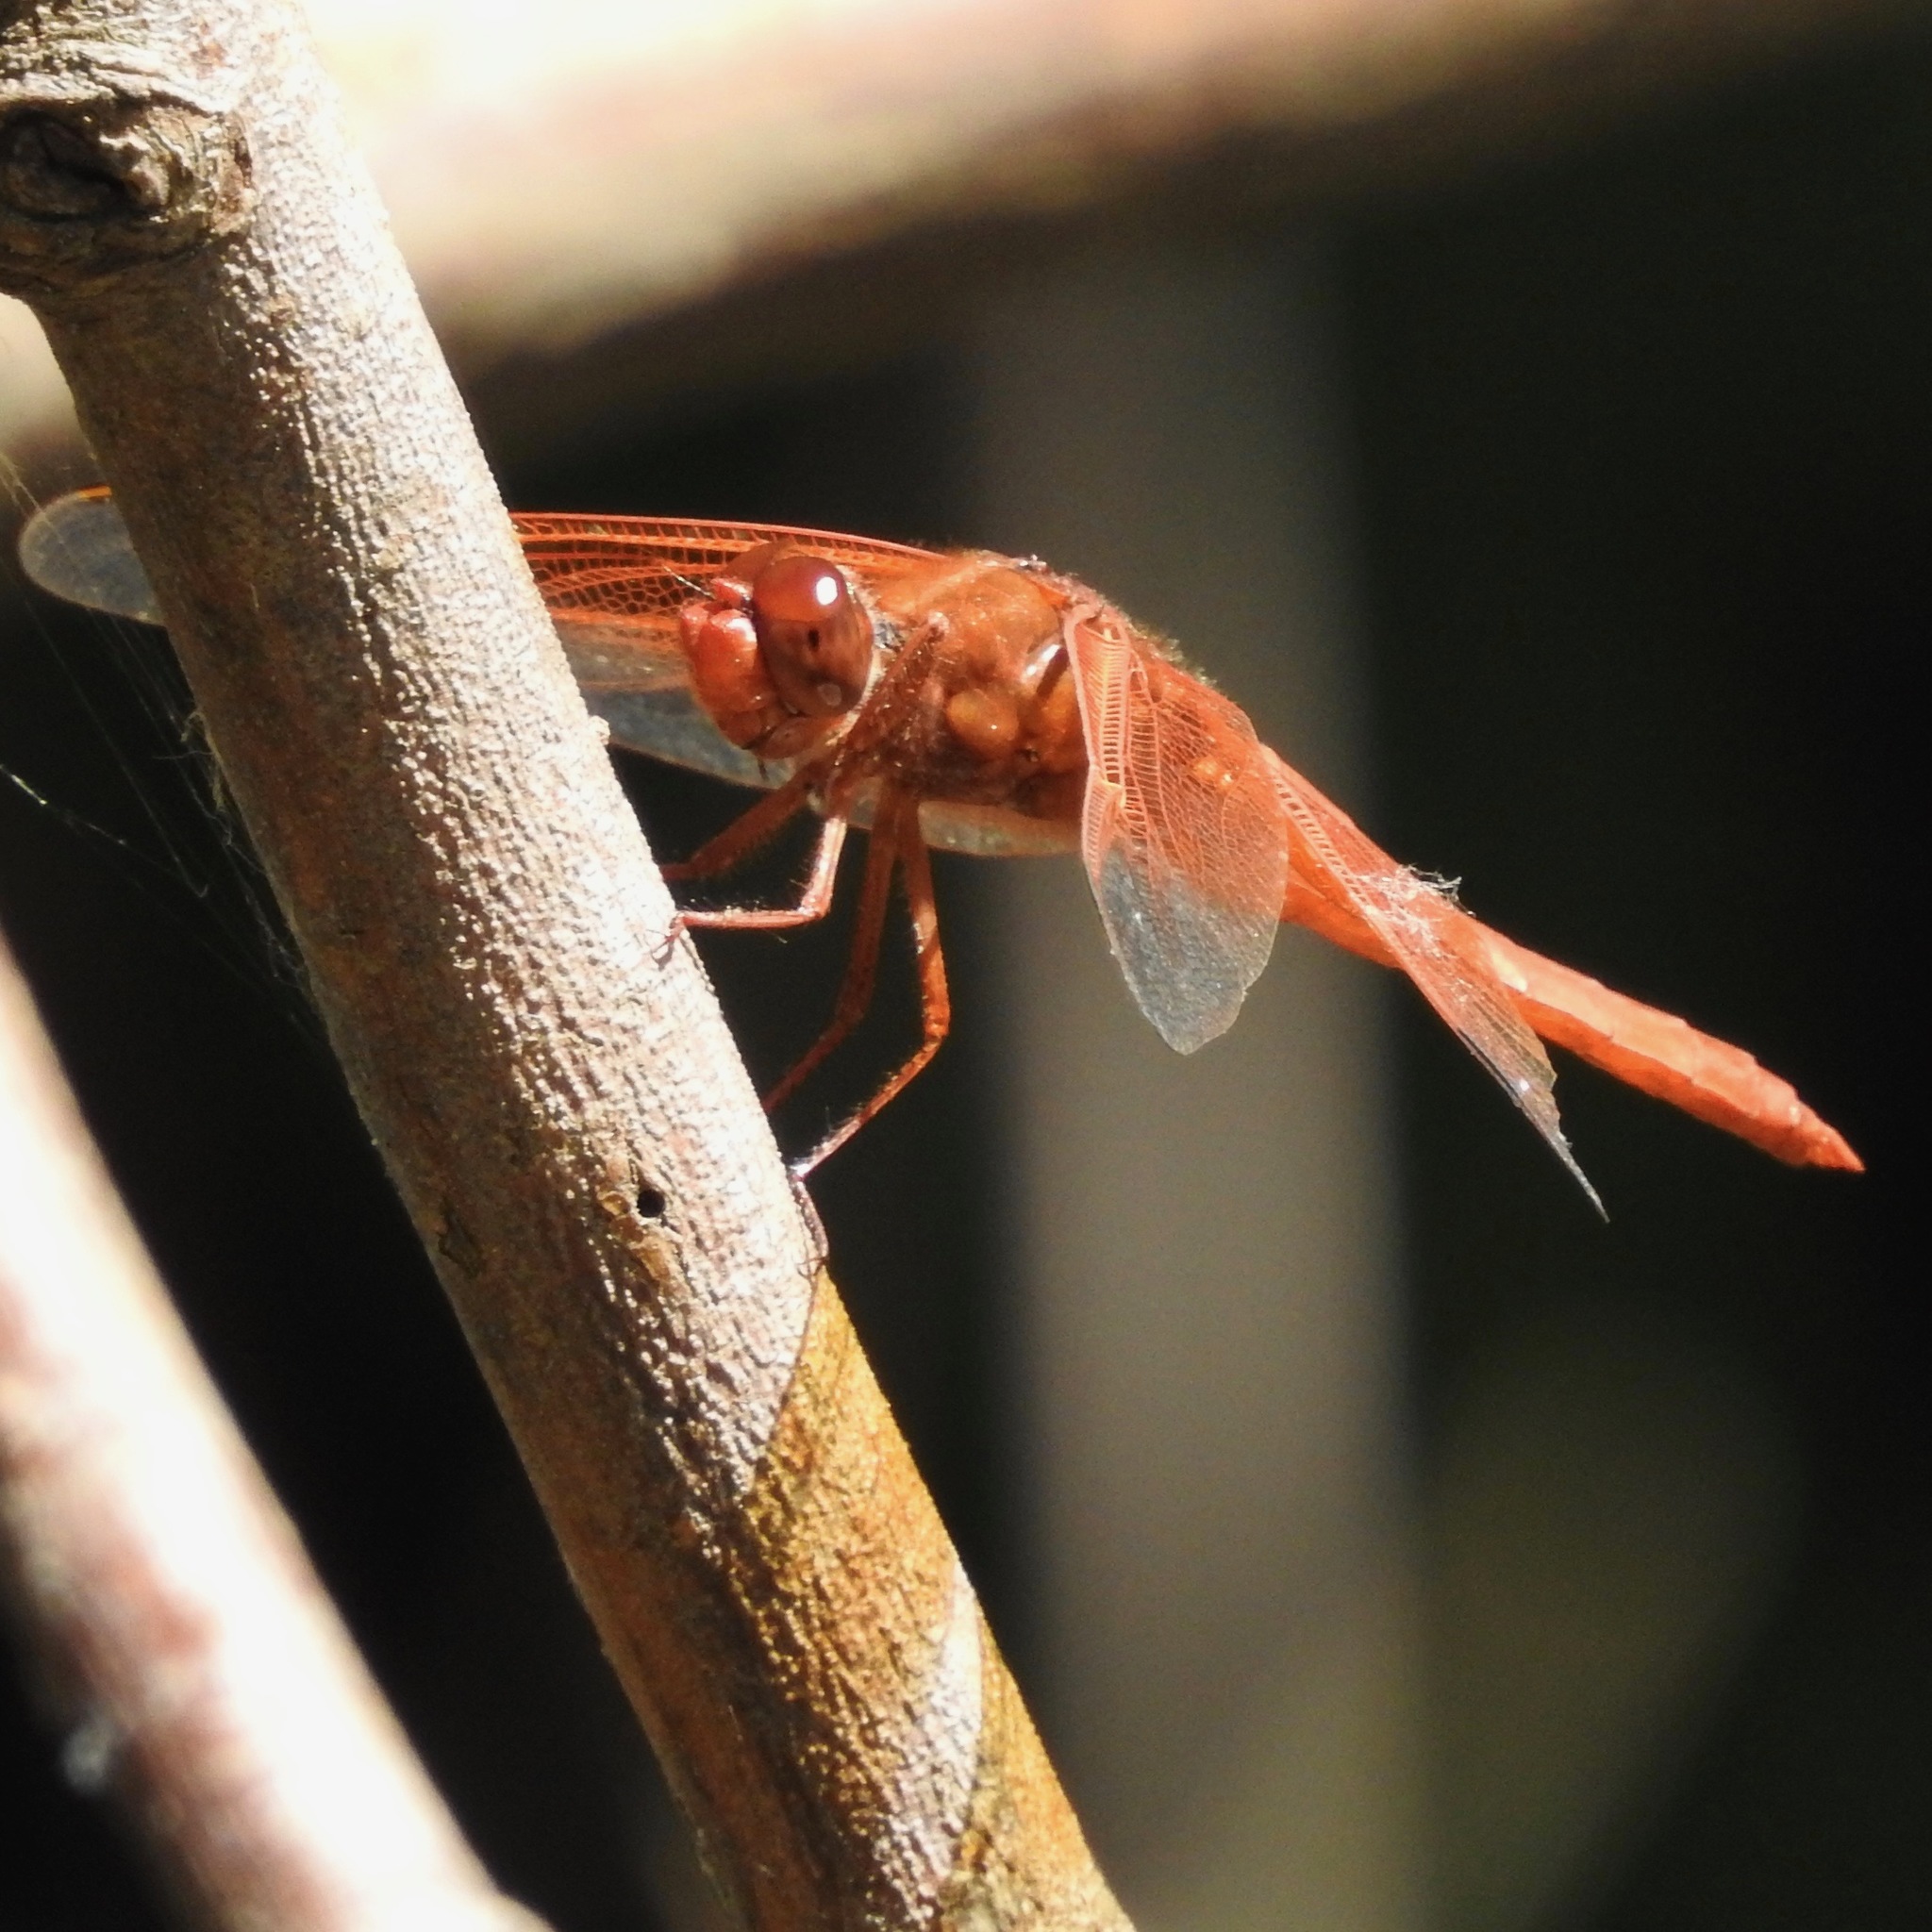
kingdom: Animalia
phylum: Arthropoda
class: Insecta
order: Odonata
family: Libellulidae
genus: Libellula
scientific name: Libellula saturata
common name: Flame skimmer
